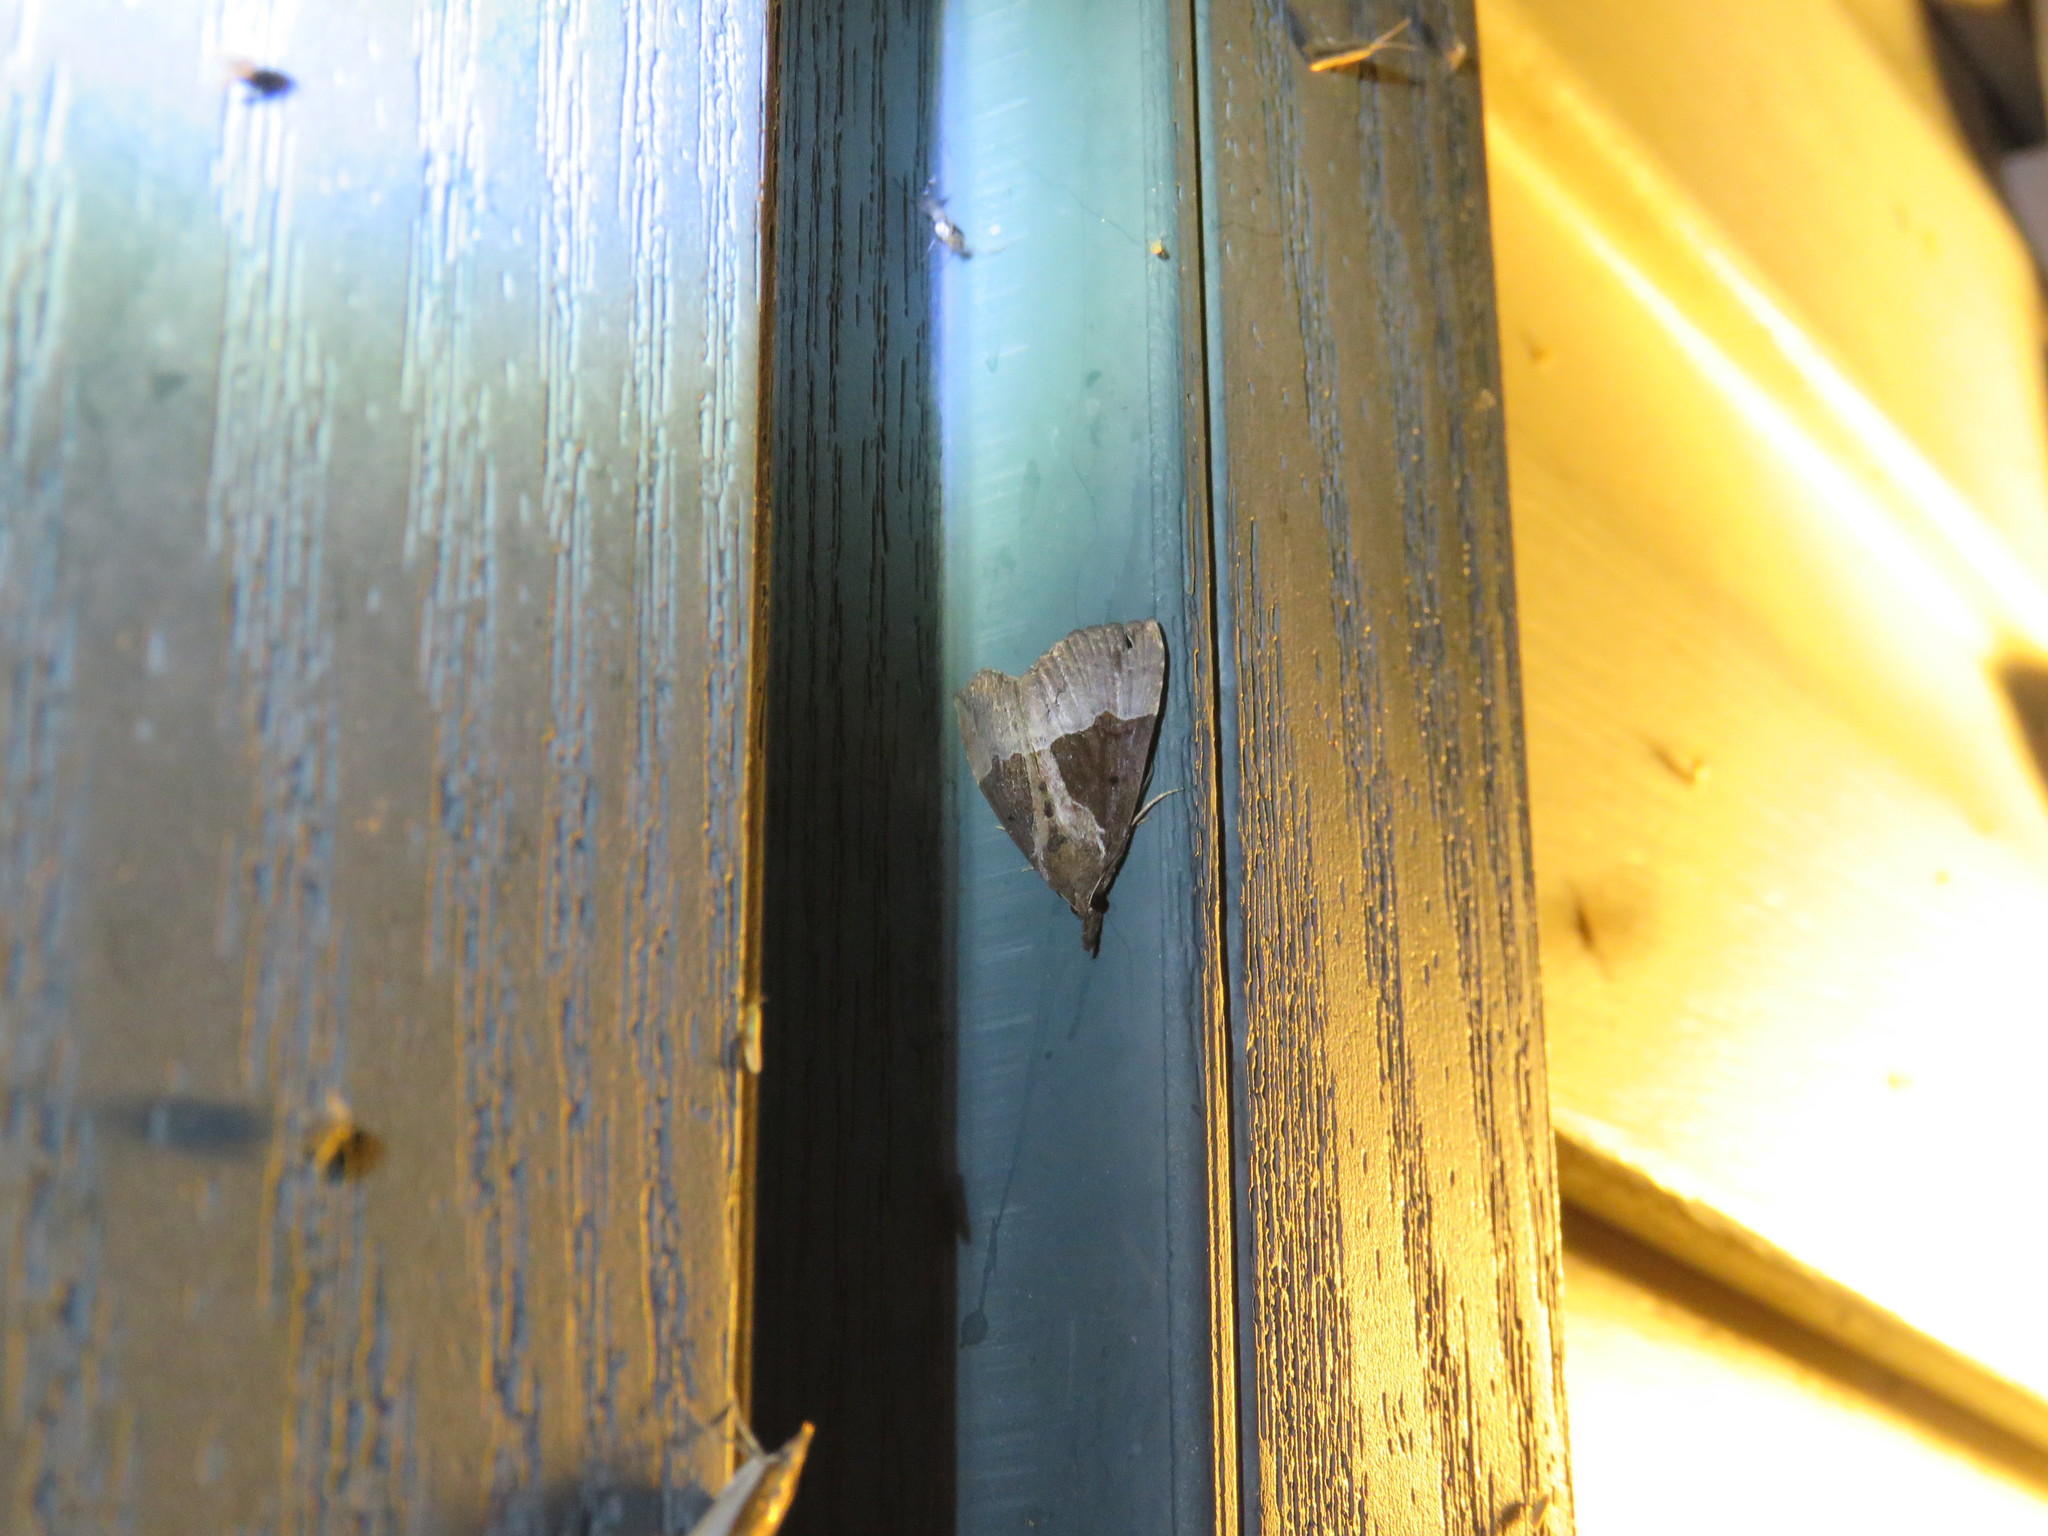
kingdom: Animalia
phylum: Arthropoda
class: Insecta
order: Lepidoptera
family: Erebidae
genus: Hypena
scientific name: Hypena bijugalis
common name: Dimorphic bomolocha moth
